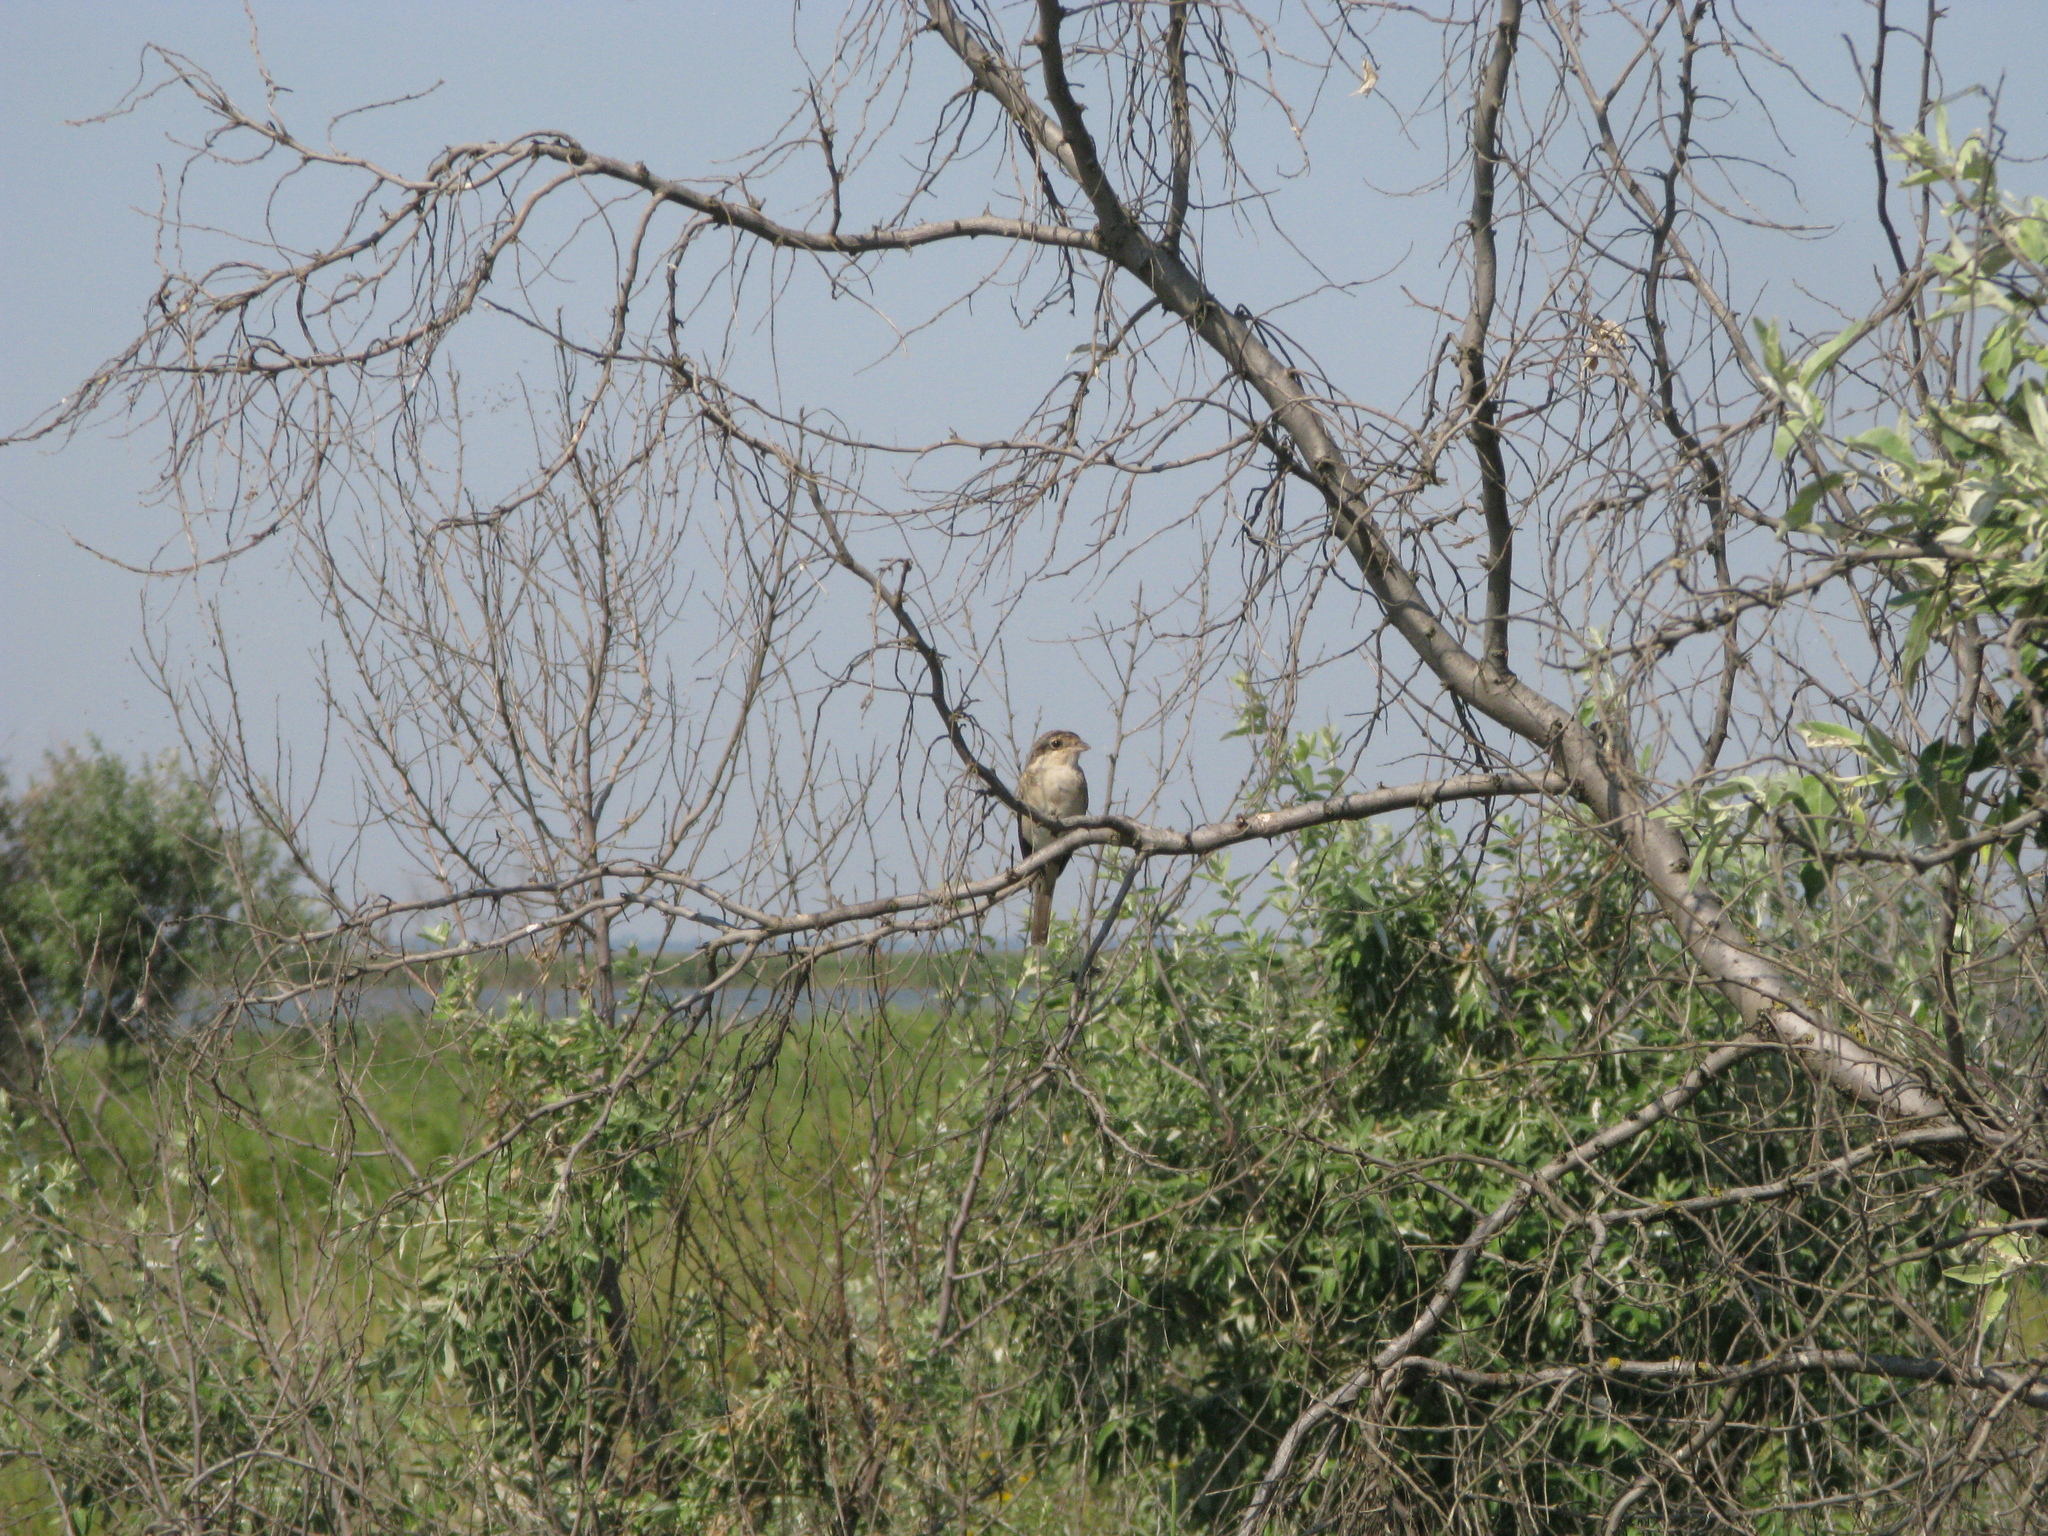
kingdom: Animalia
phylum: Chordata
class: Aves
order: Passeriformes
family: Laniidae
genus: Lanius
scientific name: Lanius collurio
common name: Red-backed shrike
